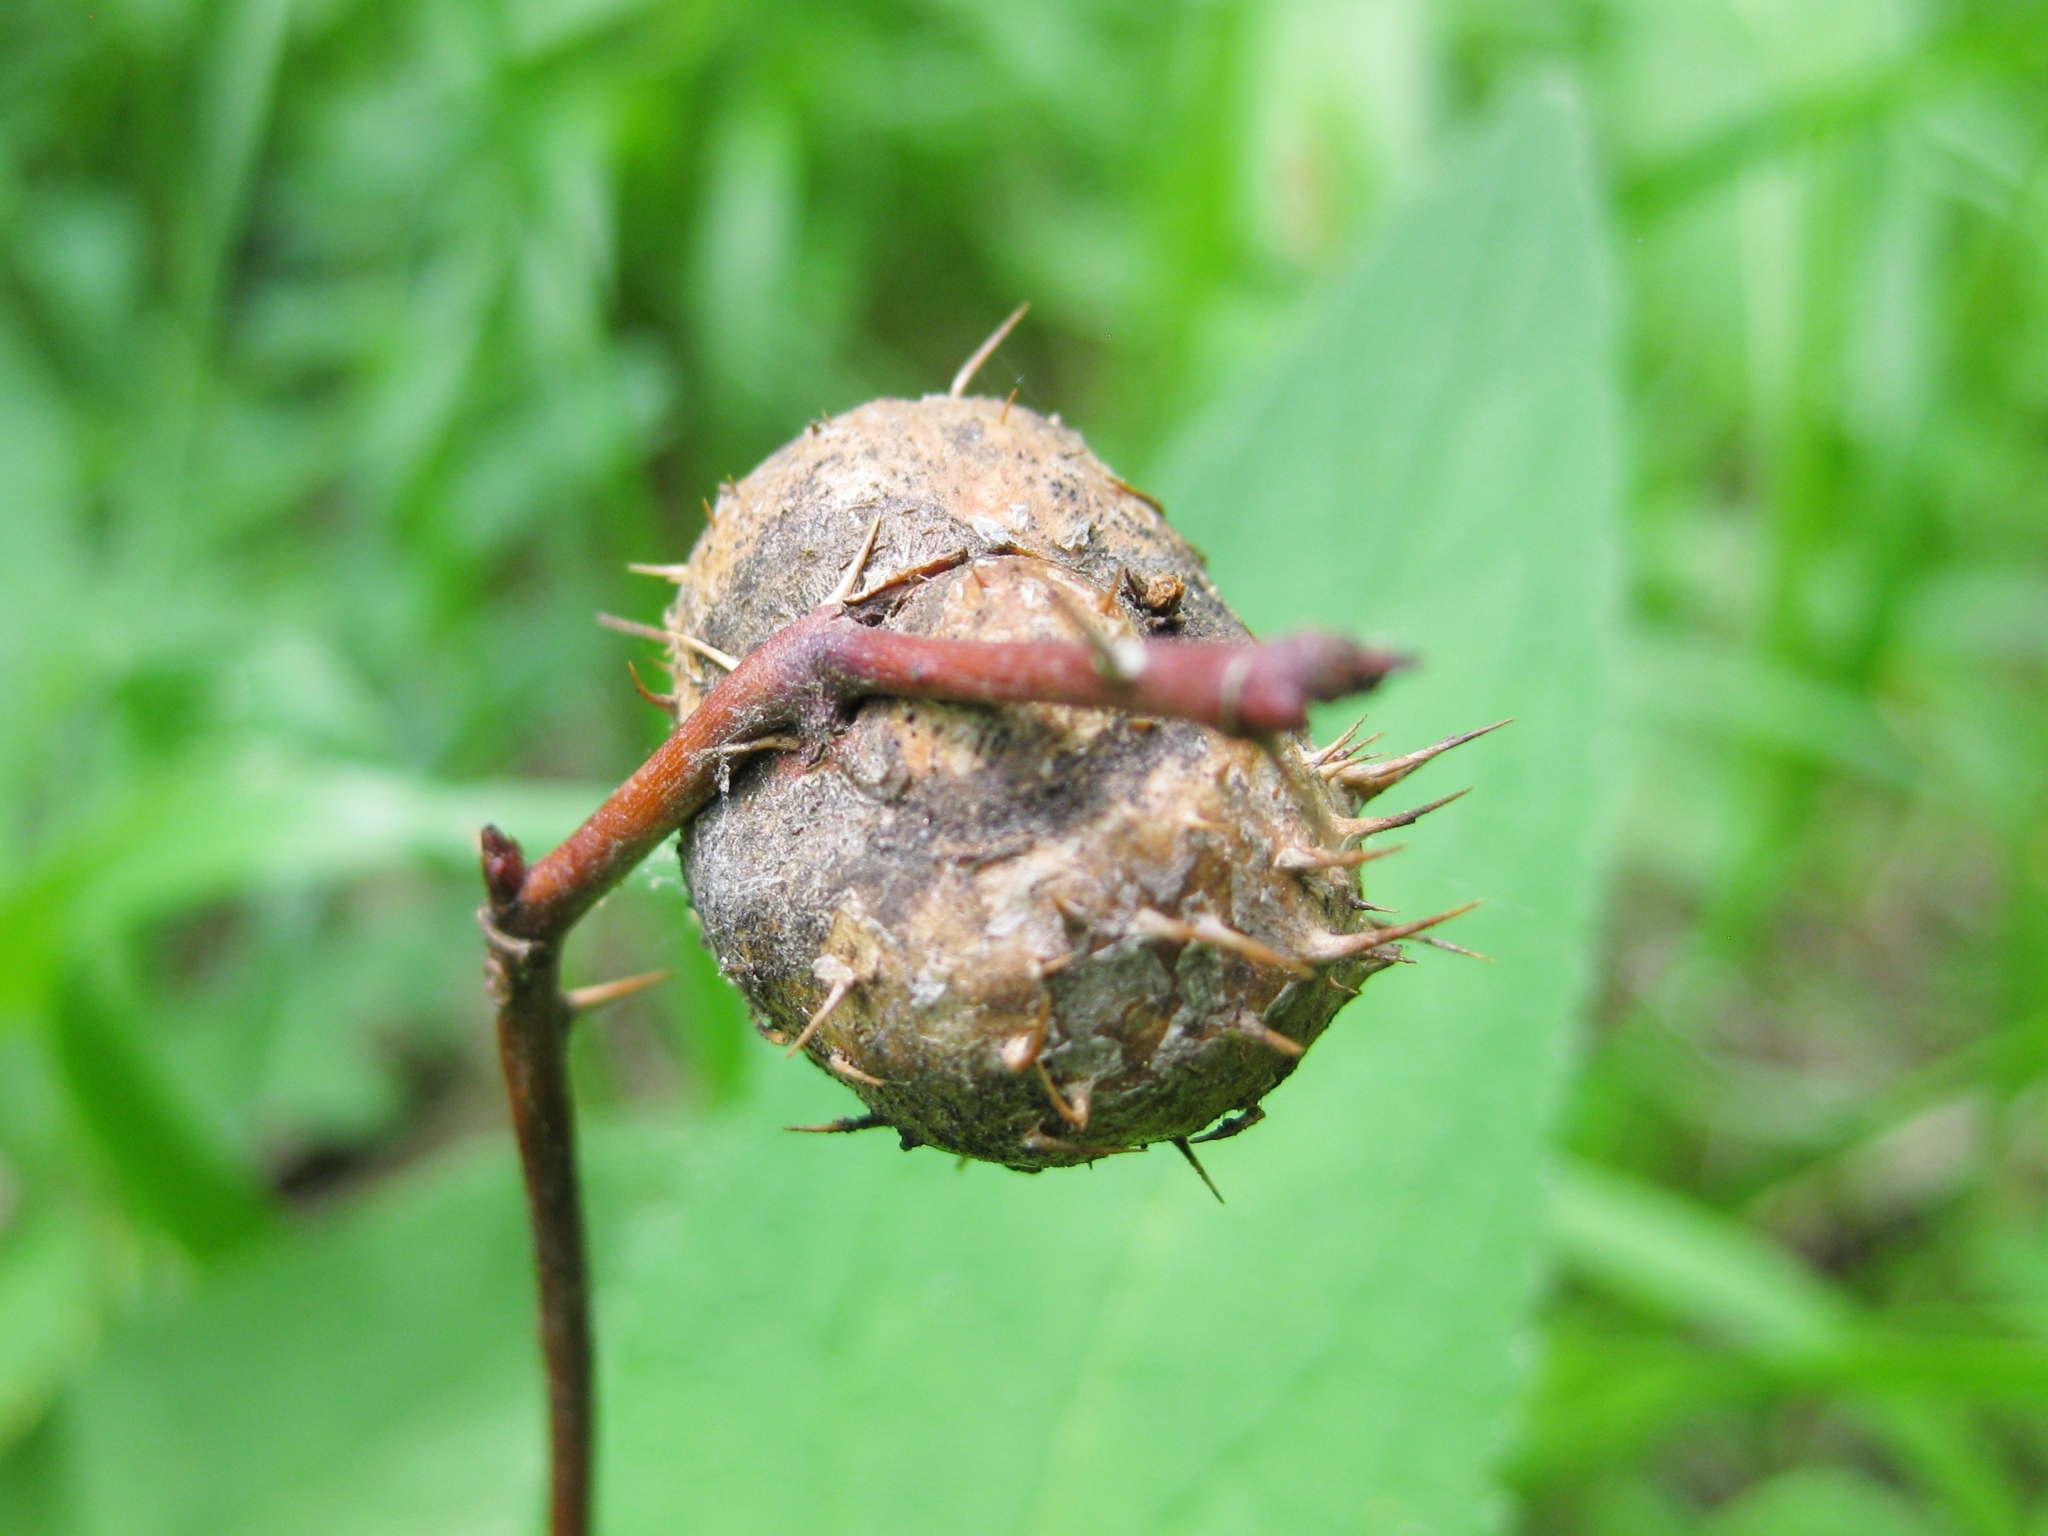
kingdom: Animalia
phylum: Arthropoda
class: Insecta
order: Hymenoptera
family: Cynipidae
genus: Diplolepis
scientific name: Diplolepis mayri
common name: Gall wasp
